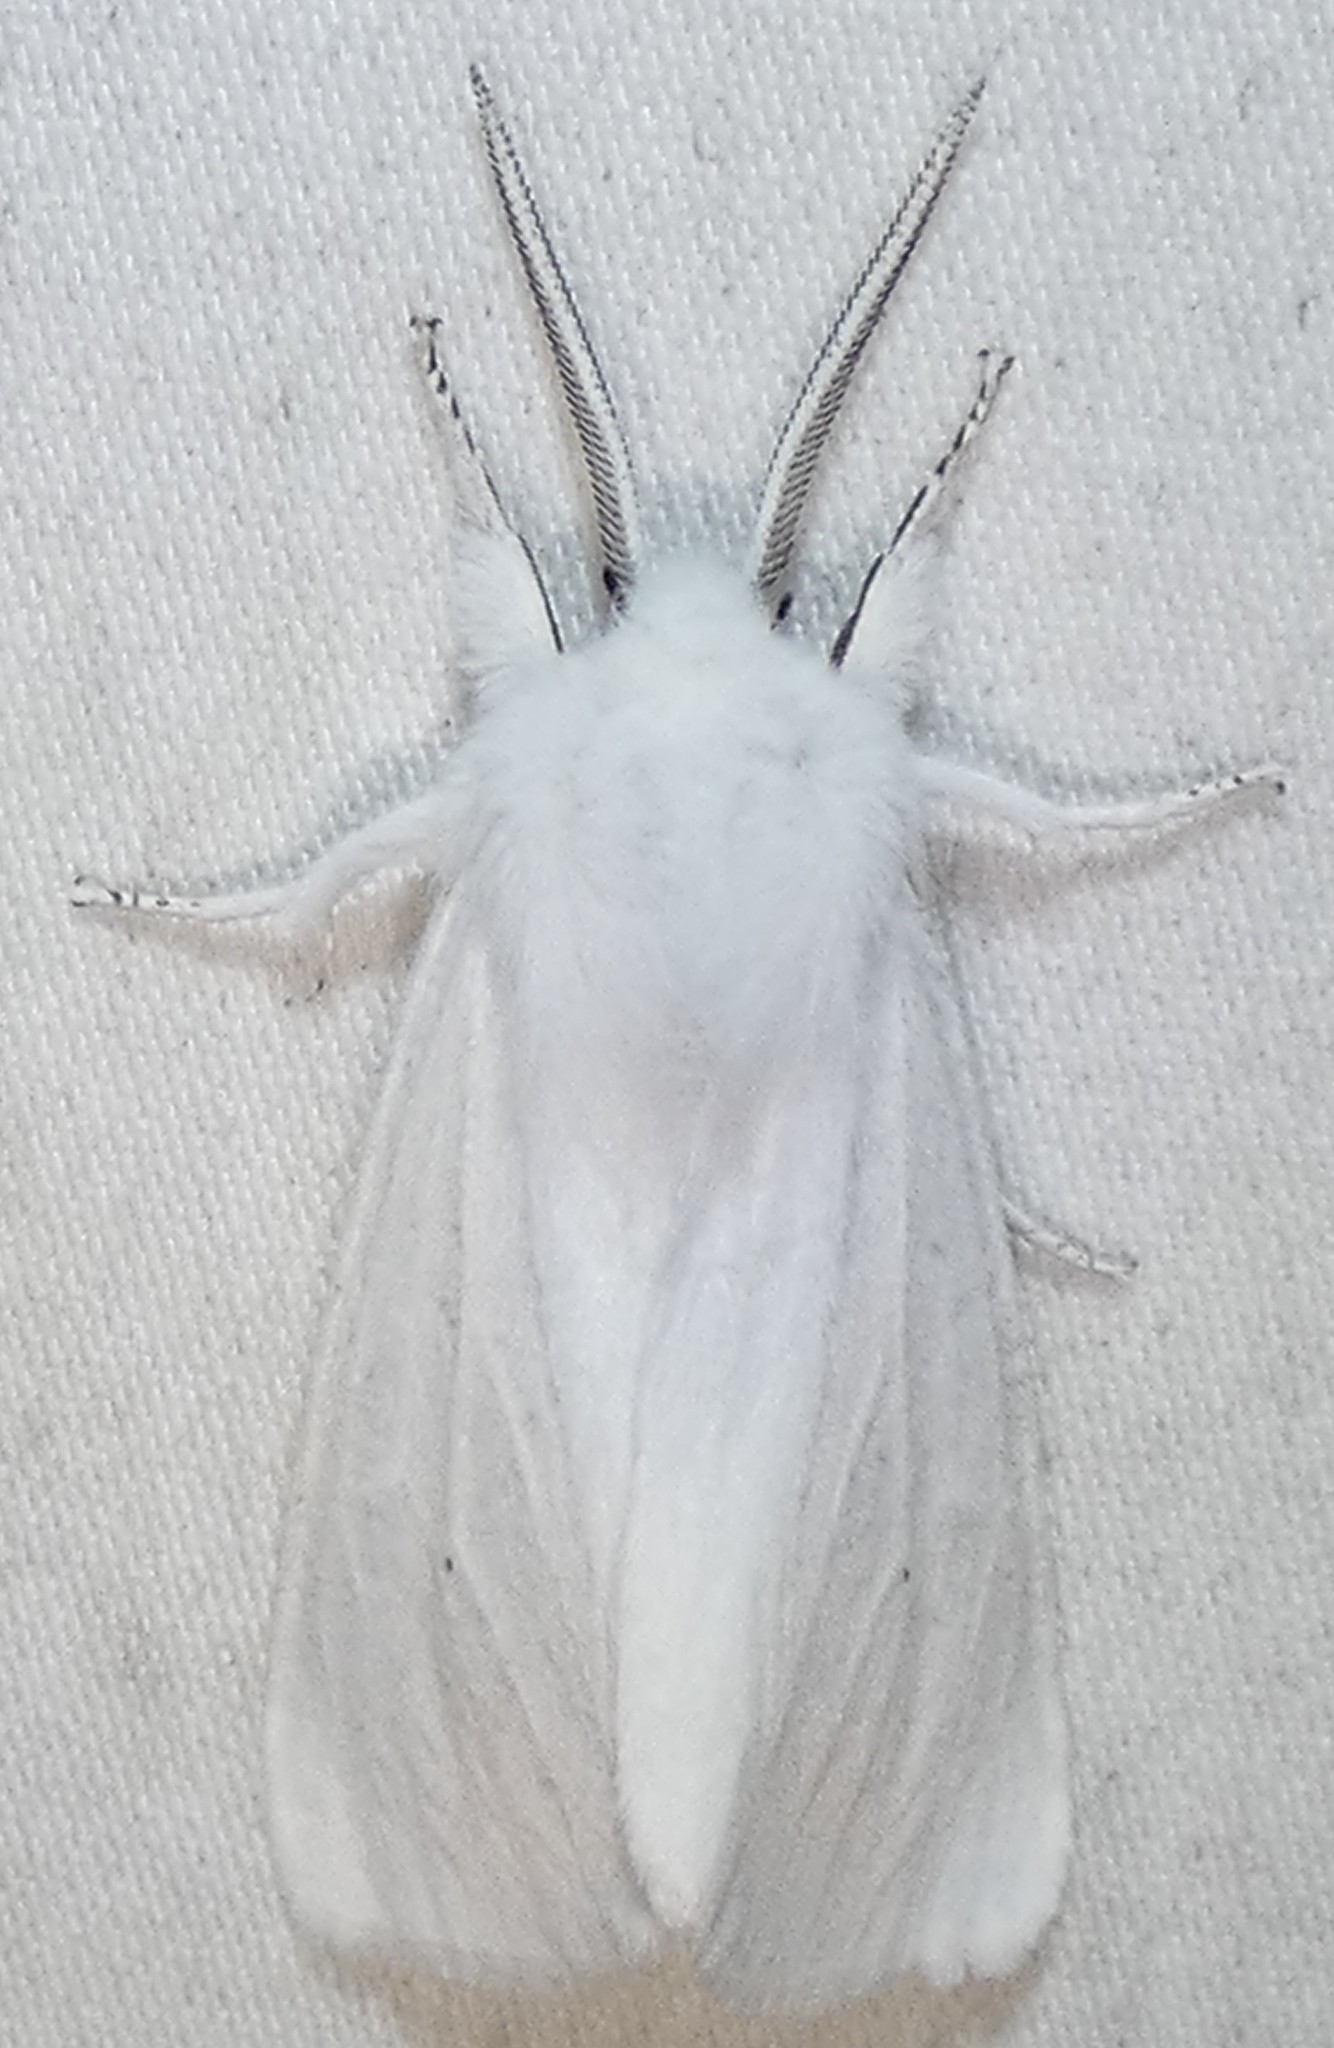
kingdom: Animalia
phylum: Arthropoda
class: Insecta
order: Lepidoptera
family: Erebidae
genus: Spilosoma
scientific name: Spilosoma virginica
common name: Virginia tiger moth
